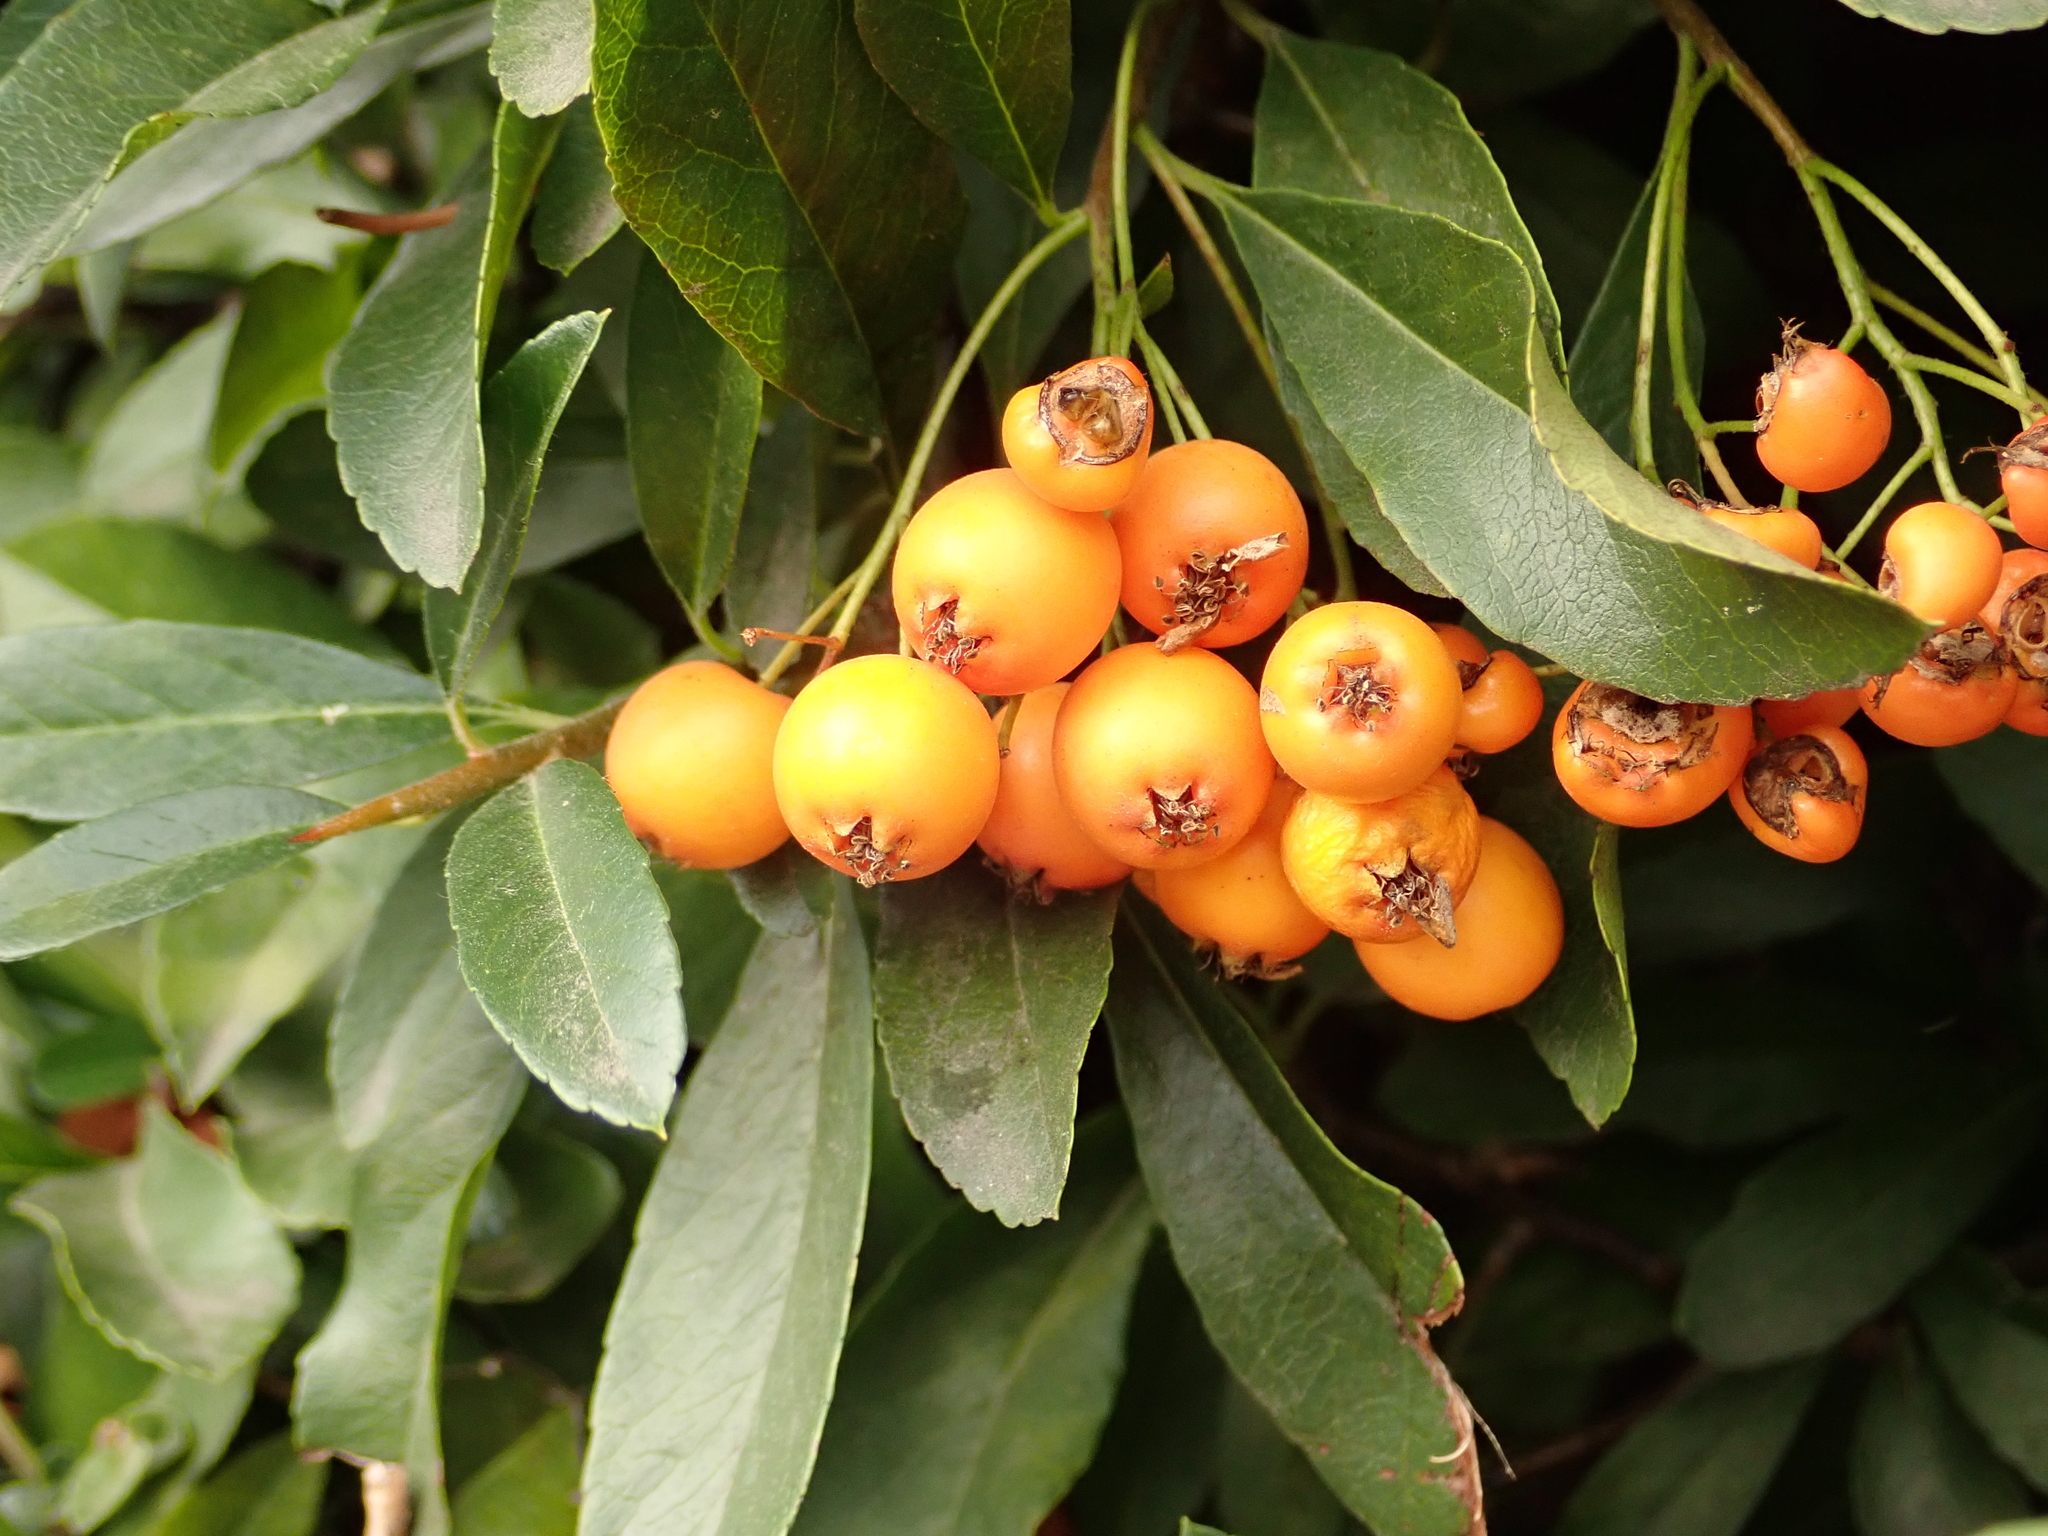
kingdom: Plantae
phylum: Tracheophyta
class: Magnoliopsida
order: Rosales
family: Rosaceae
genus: Pyracantha
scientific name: Pyracantha coccinea
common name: Firethorn
